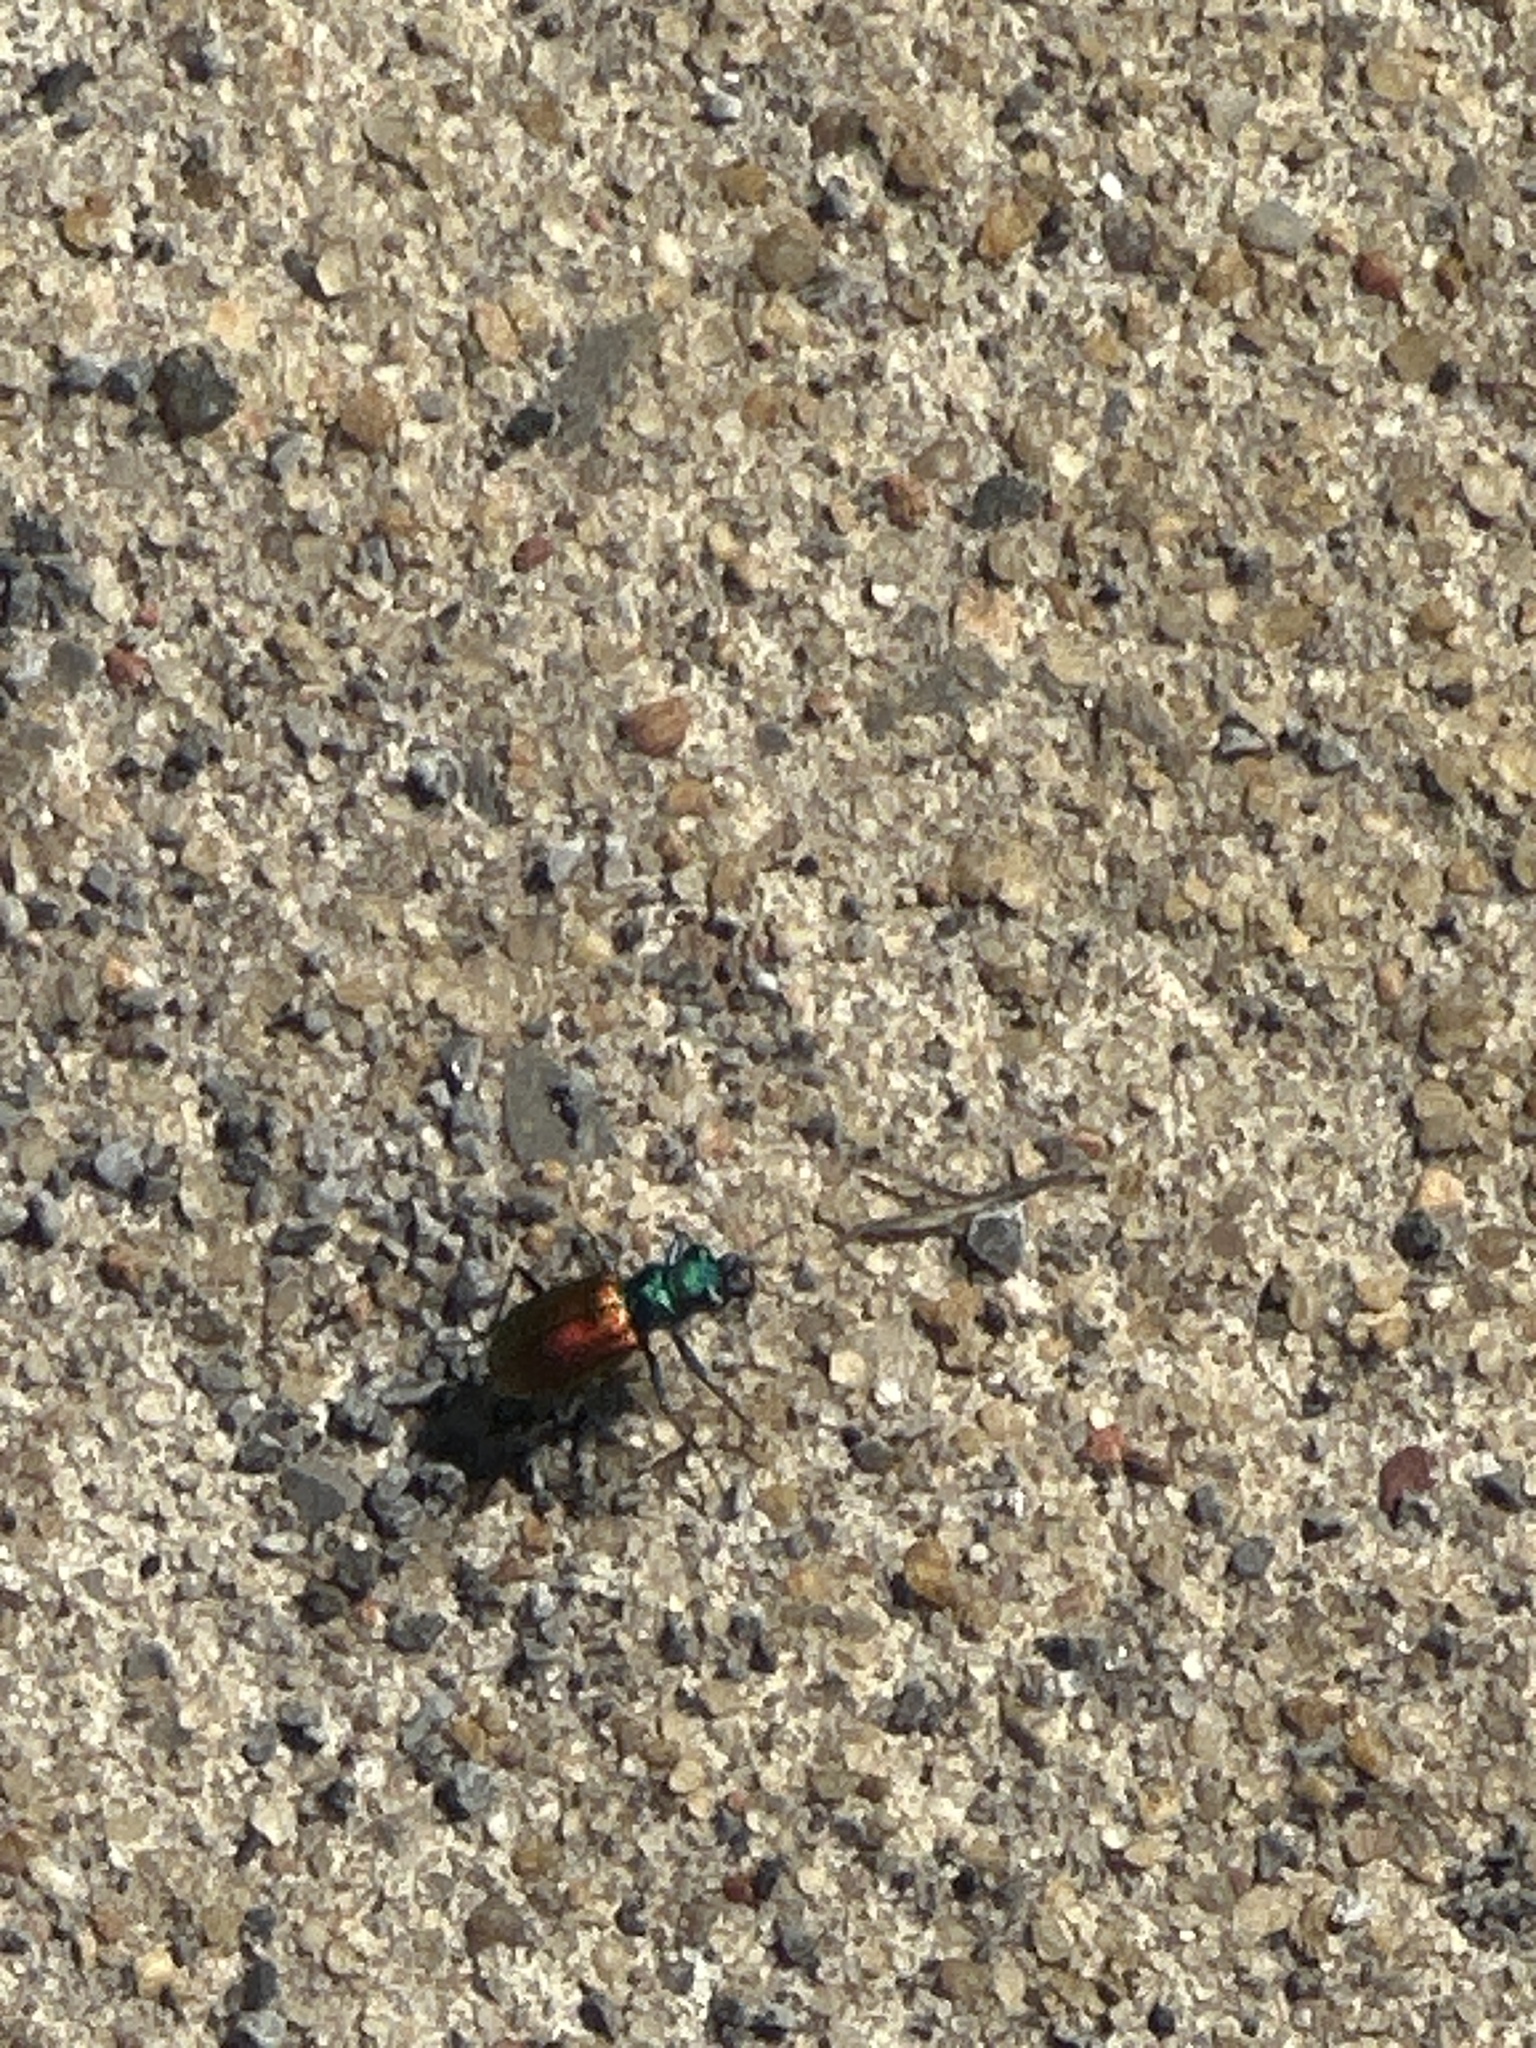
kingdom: Animalia
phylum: Arthropoda
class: Insecta
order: Coleoptera
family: Carabidae
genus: Cicindela
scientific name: Cicindela scutellaris
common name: Festive tiger beetle
